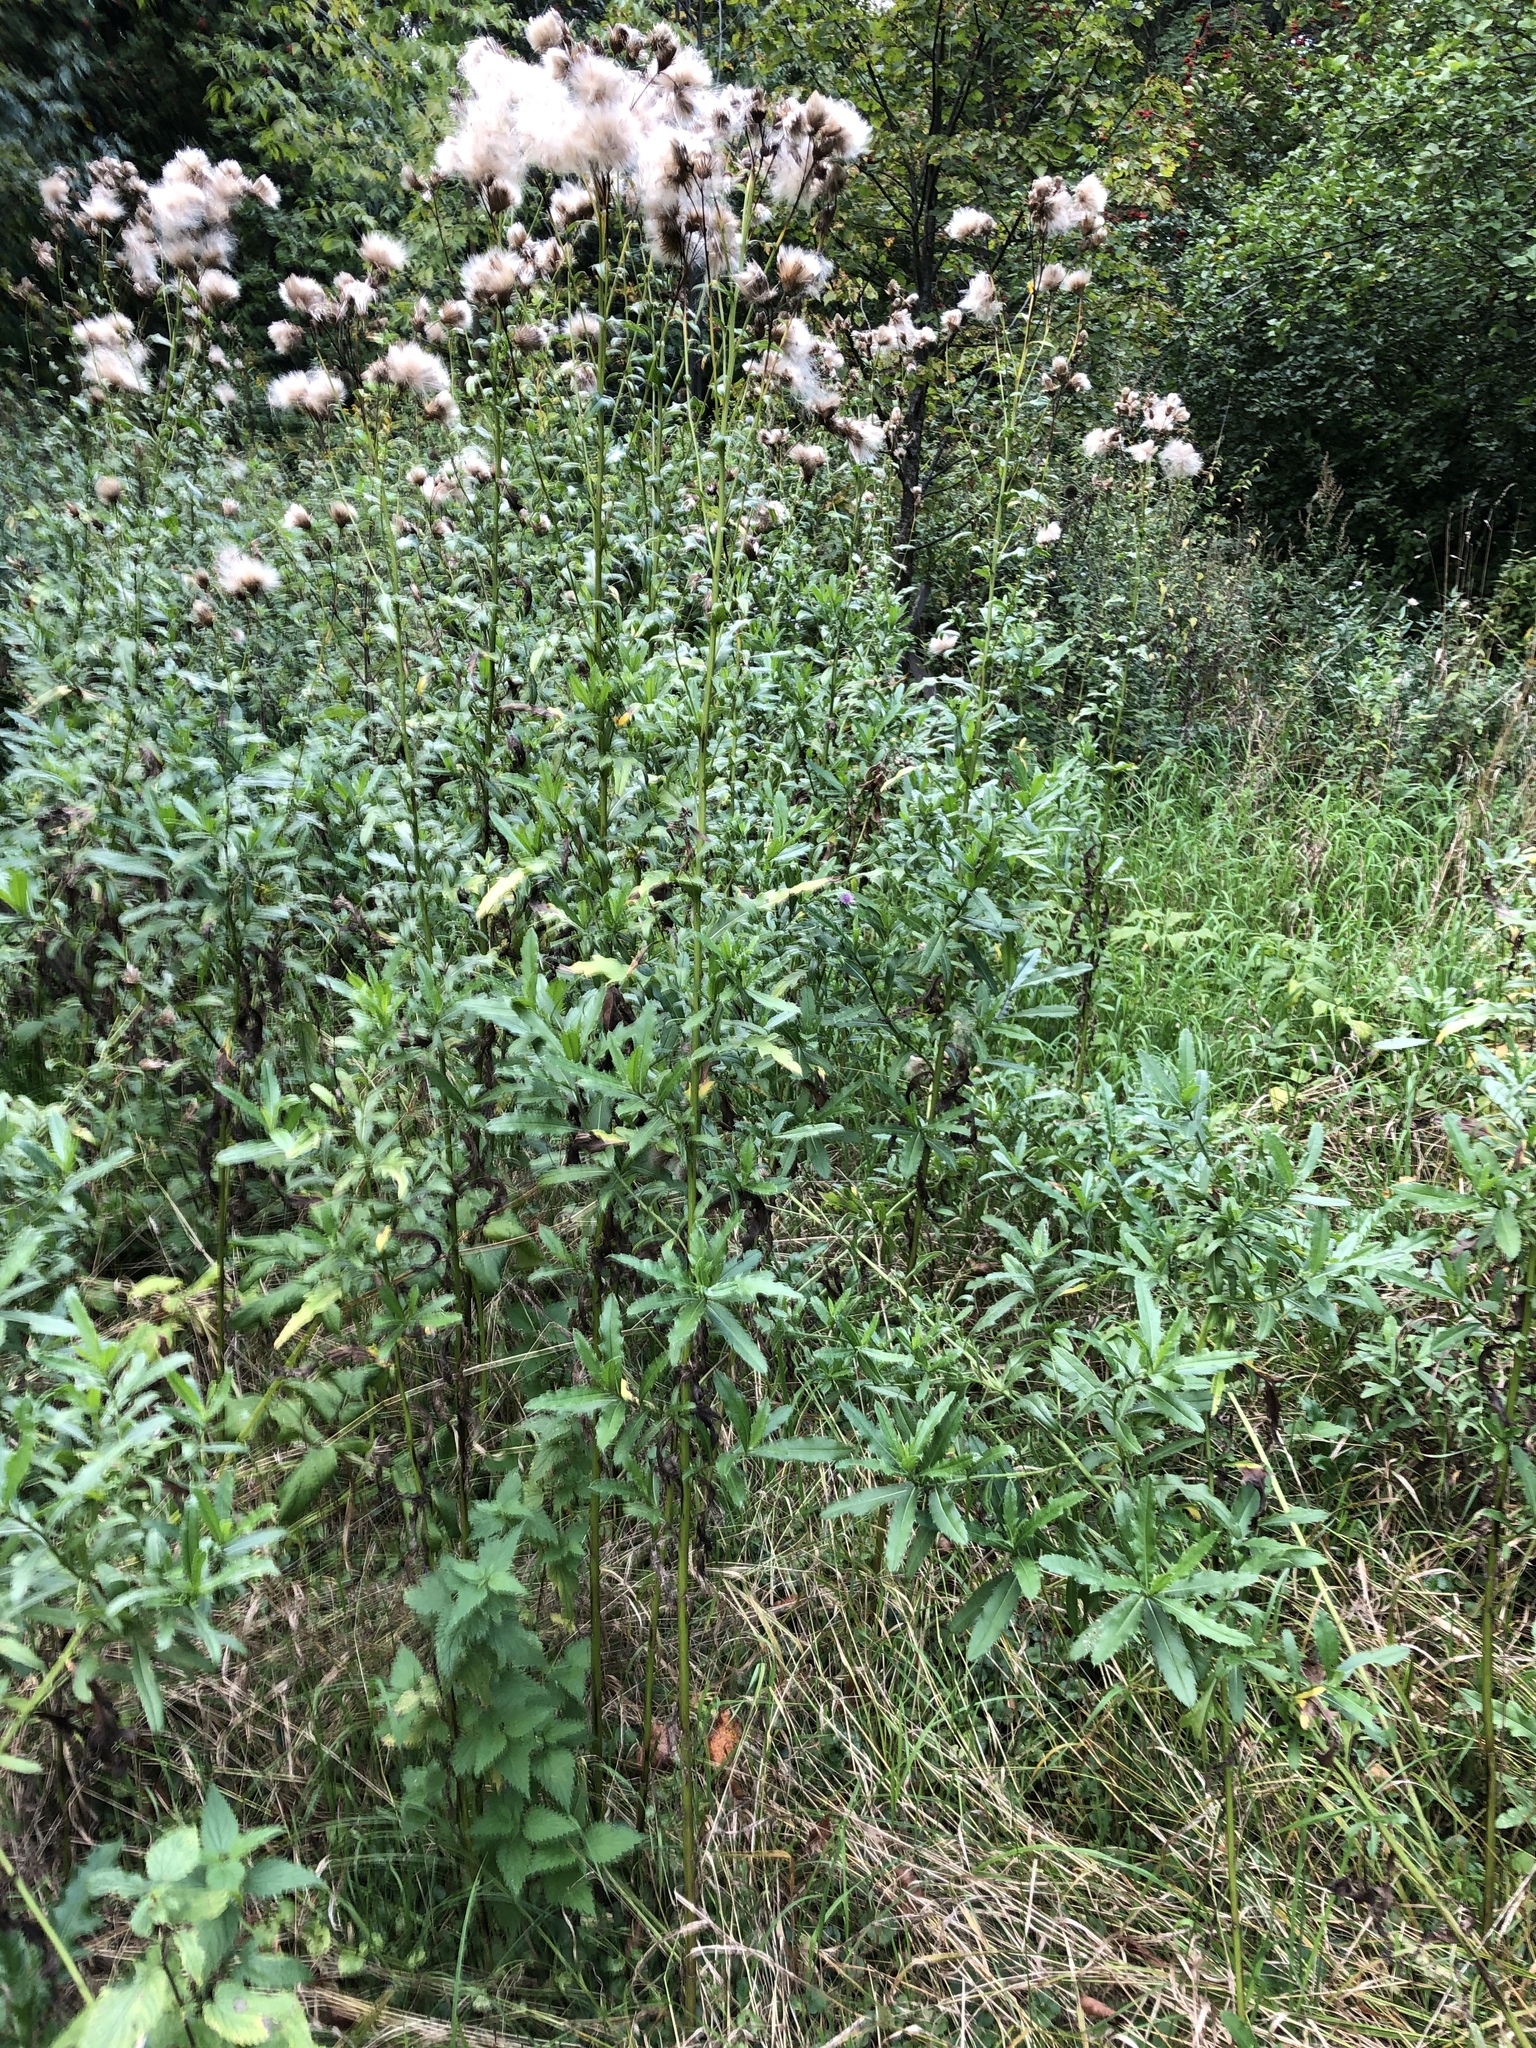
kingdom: Plantae
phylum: Tracheophyta
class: Magnoliopsida
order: Asterales
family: Asteraceae
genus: Cirsium
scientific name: Cirsium arvense
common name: Creeping thistle
